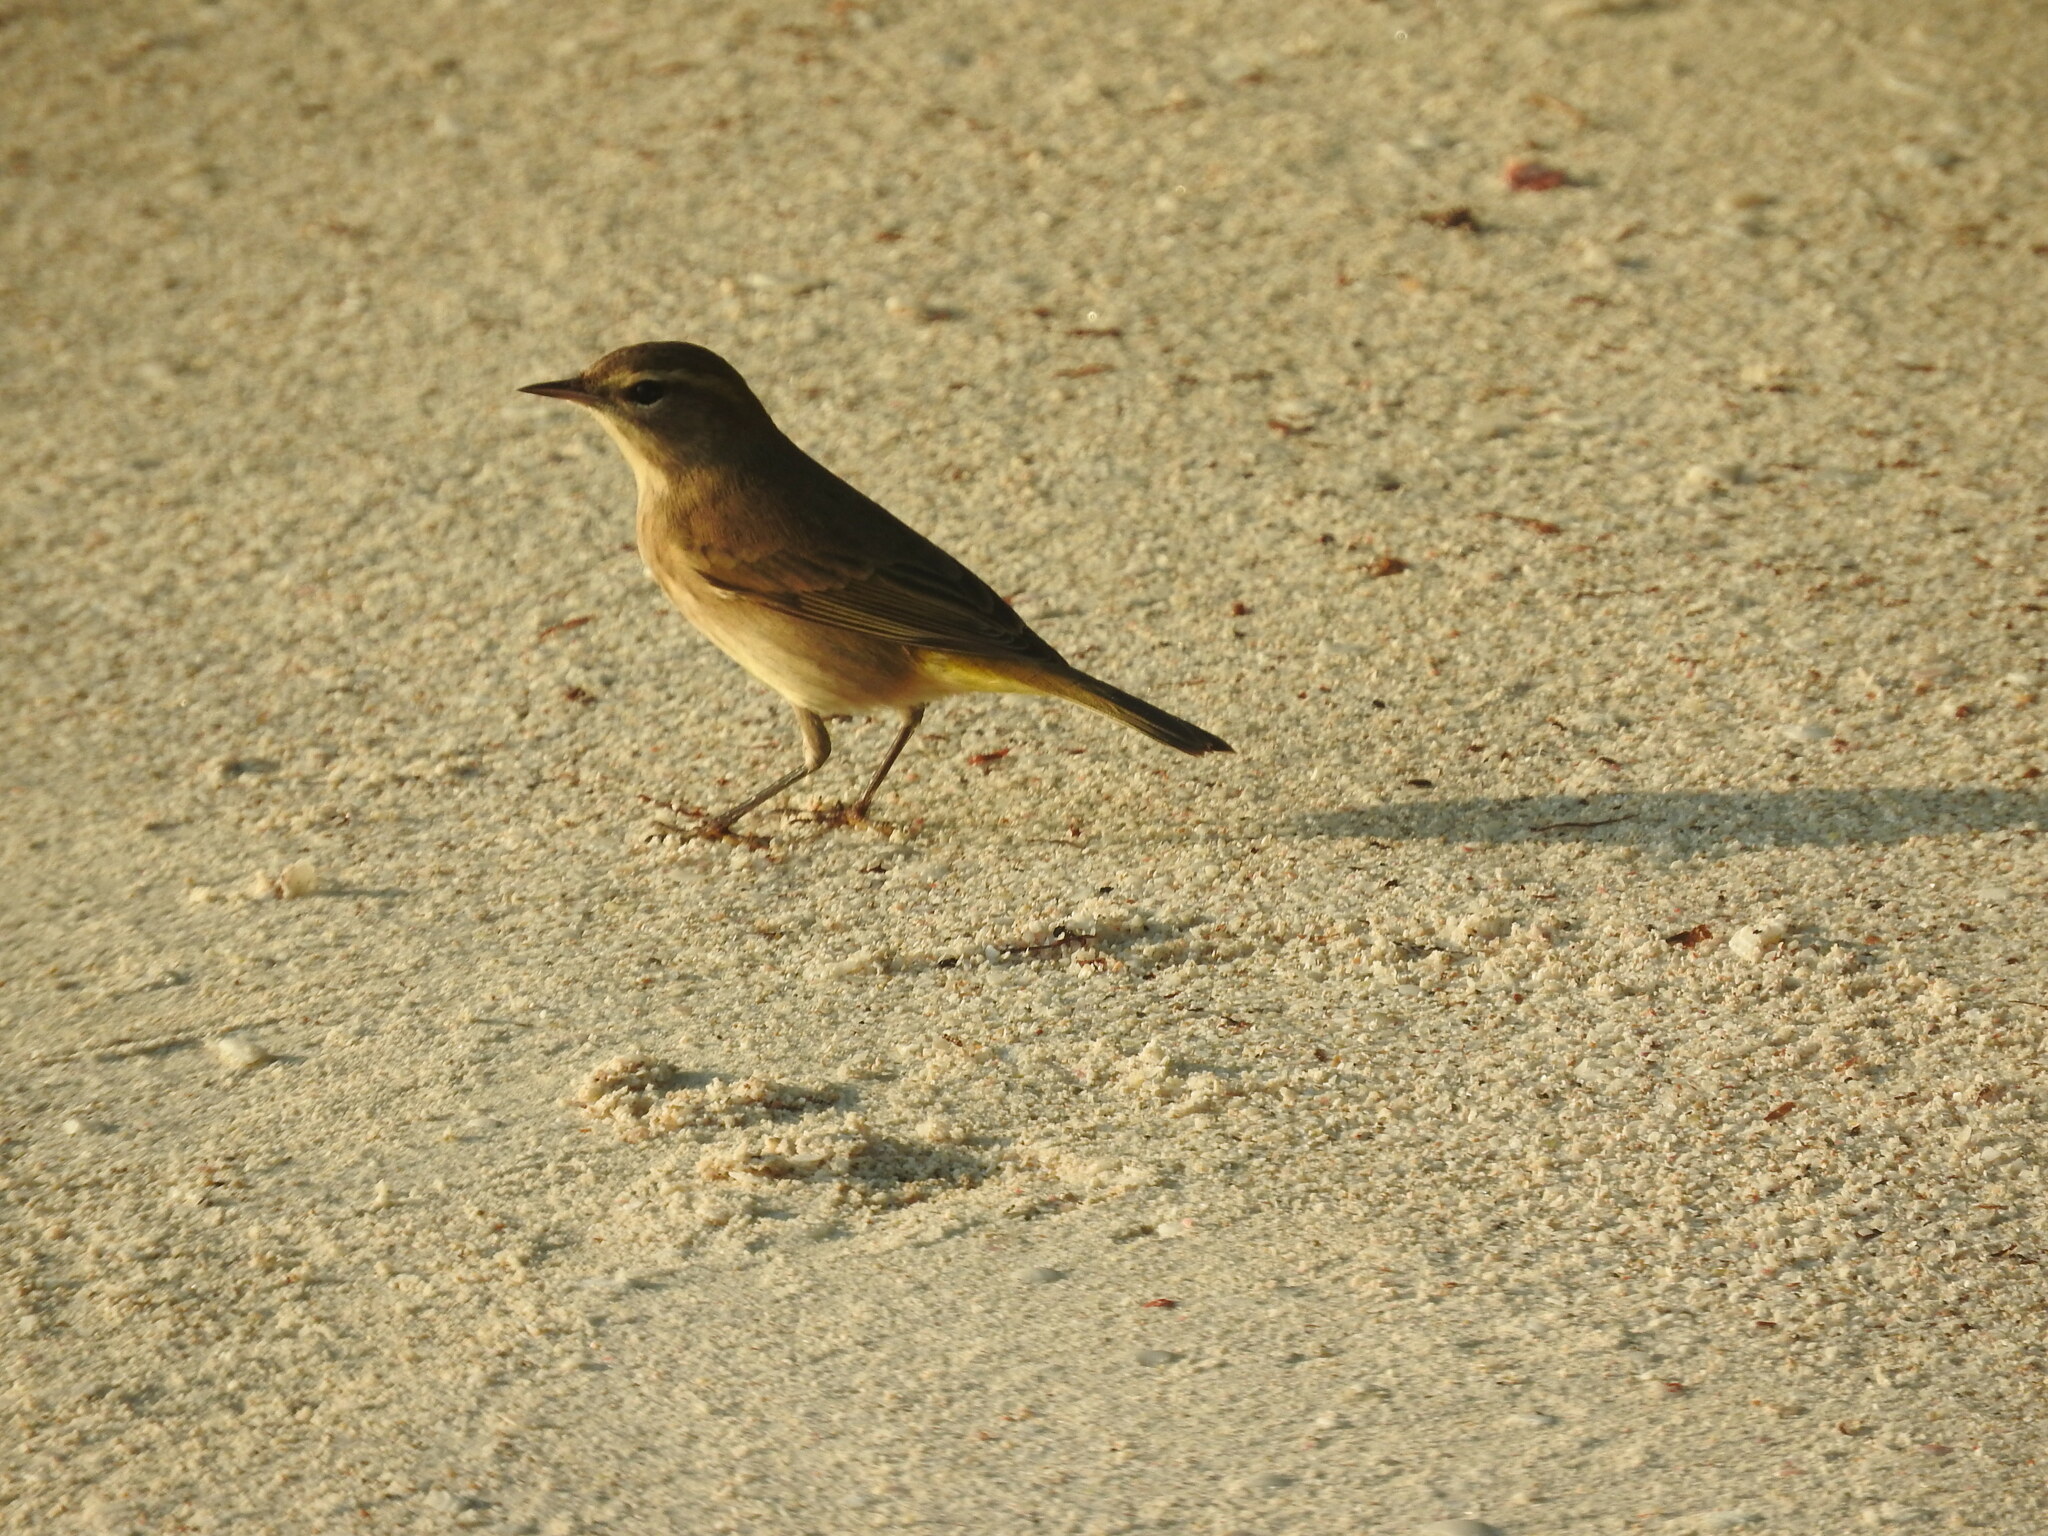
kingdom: Animalia
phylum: Chordata
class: Aves
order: Passeriformes
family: Parulidae
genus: Setophaga
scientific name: Setophaga palmarum
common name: Palm warbler
